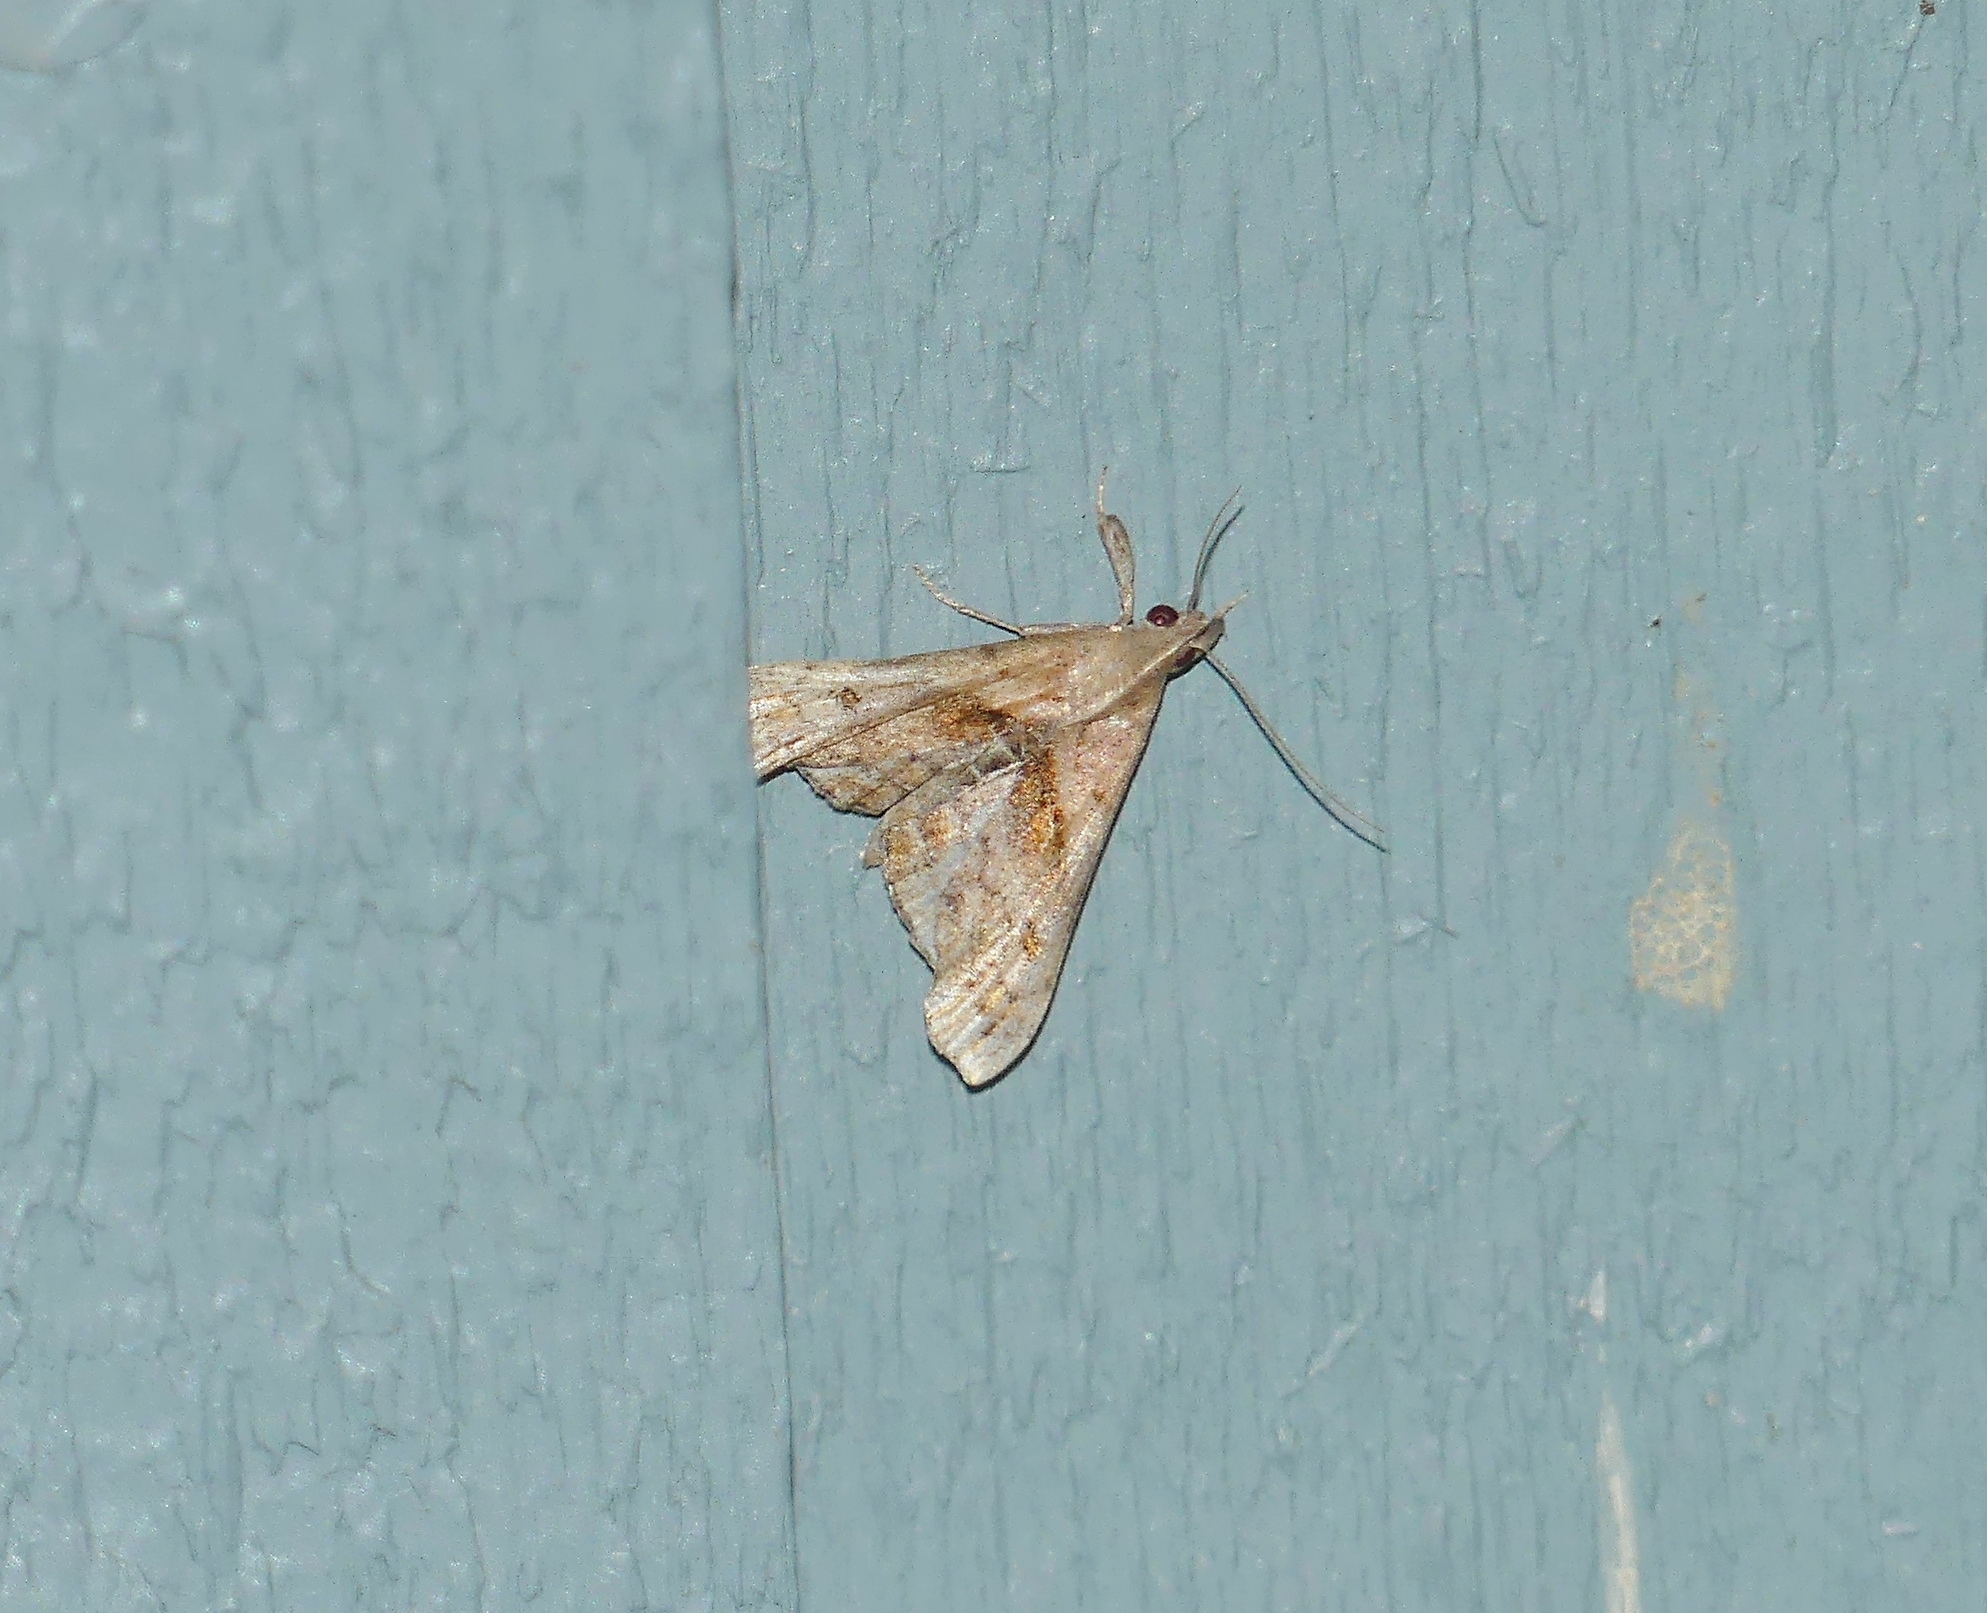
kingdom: Animalia
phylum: Arthropoda
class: Insecta
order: Lepidoptera
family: Erebidae
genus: Palthis
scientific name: Palthis angulalis
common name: Dark-spotted palthis moth
